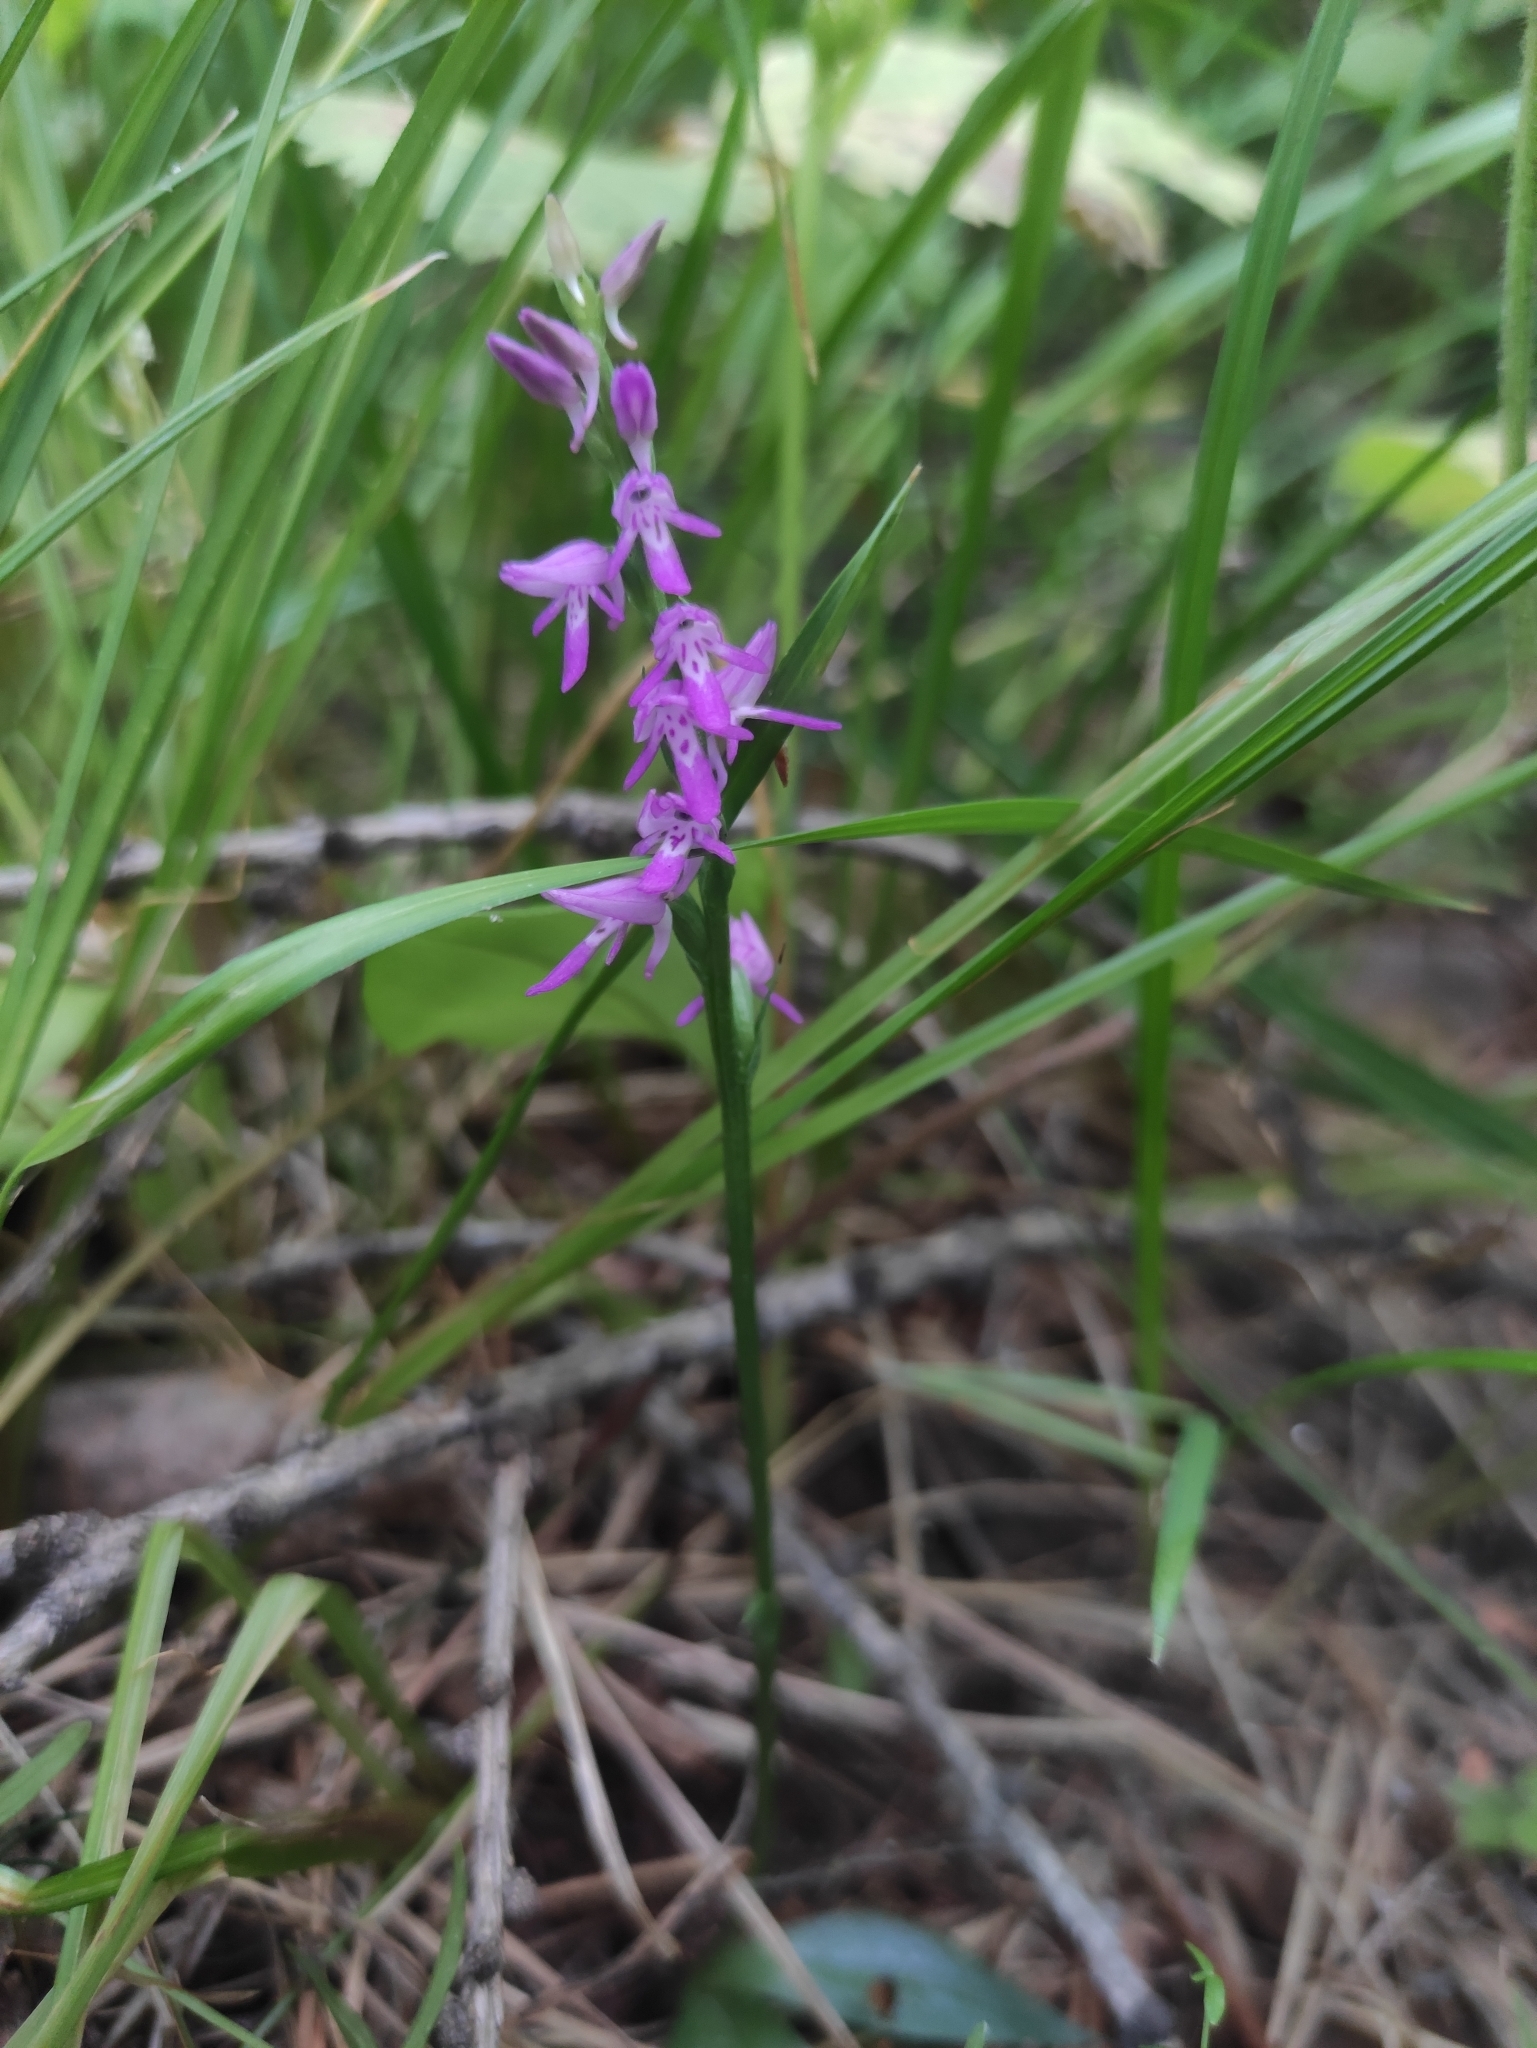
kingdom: Plantae
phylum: Tracheophyta
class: Liliopsida
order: Asparagales
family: Orchidaceae
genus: Hemipilia
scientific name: Hemipilia cucullata
